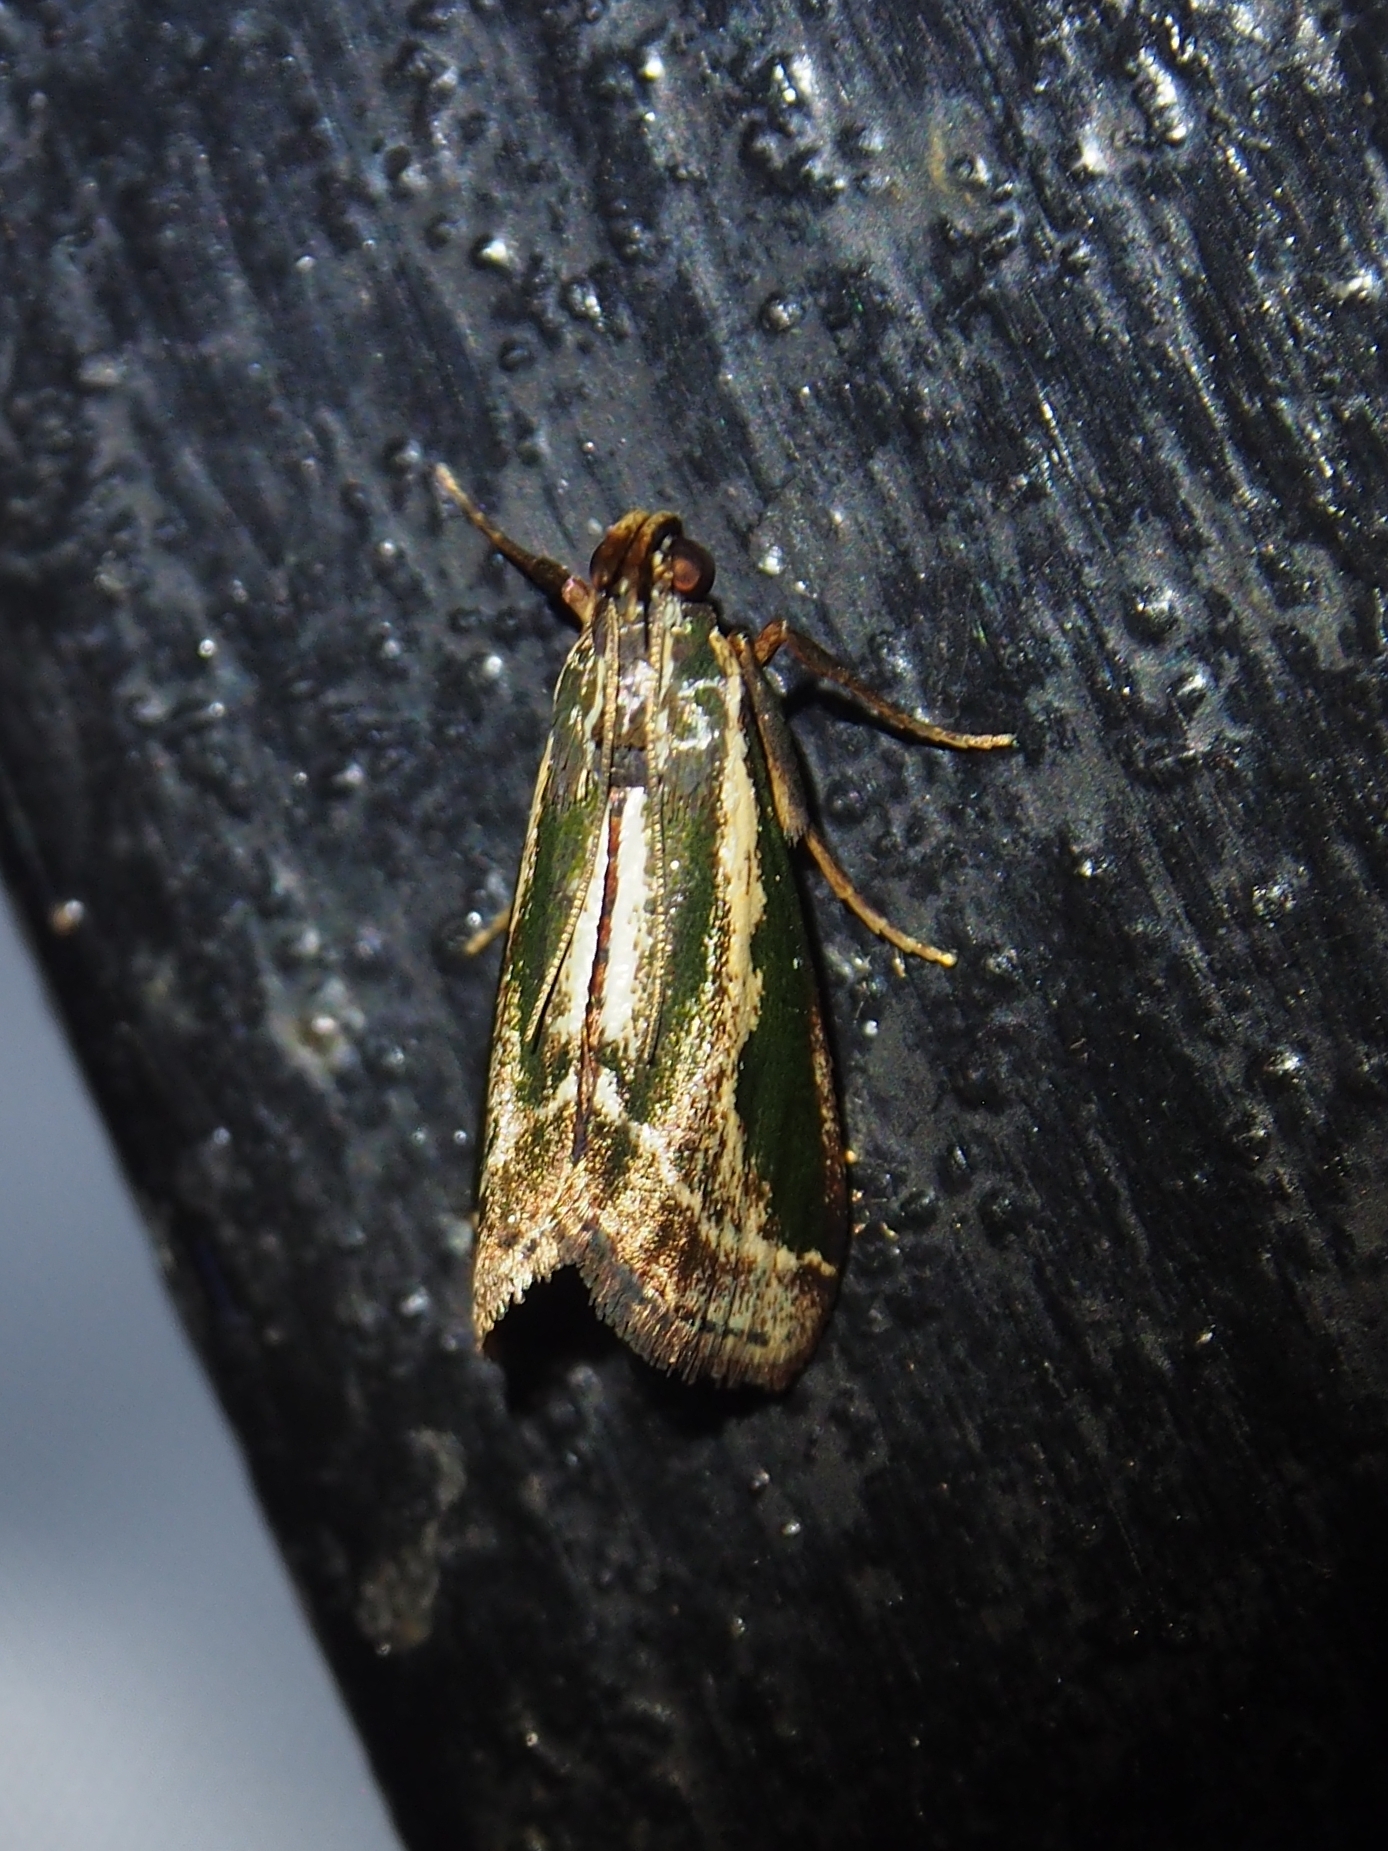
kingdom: Animalia
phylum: Arthropoda
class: Insecta
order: Lepidoptera
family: Pyralidae
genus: Anarnatula
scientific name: Anarnatula subflavida
